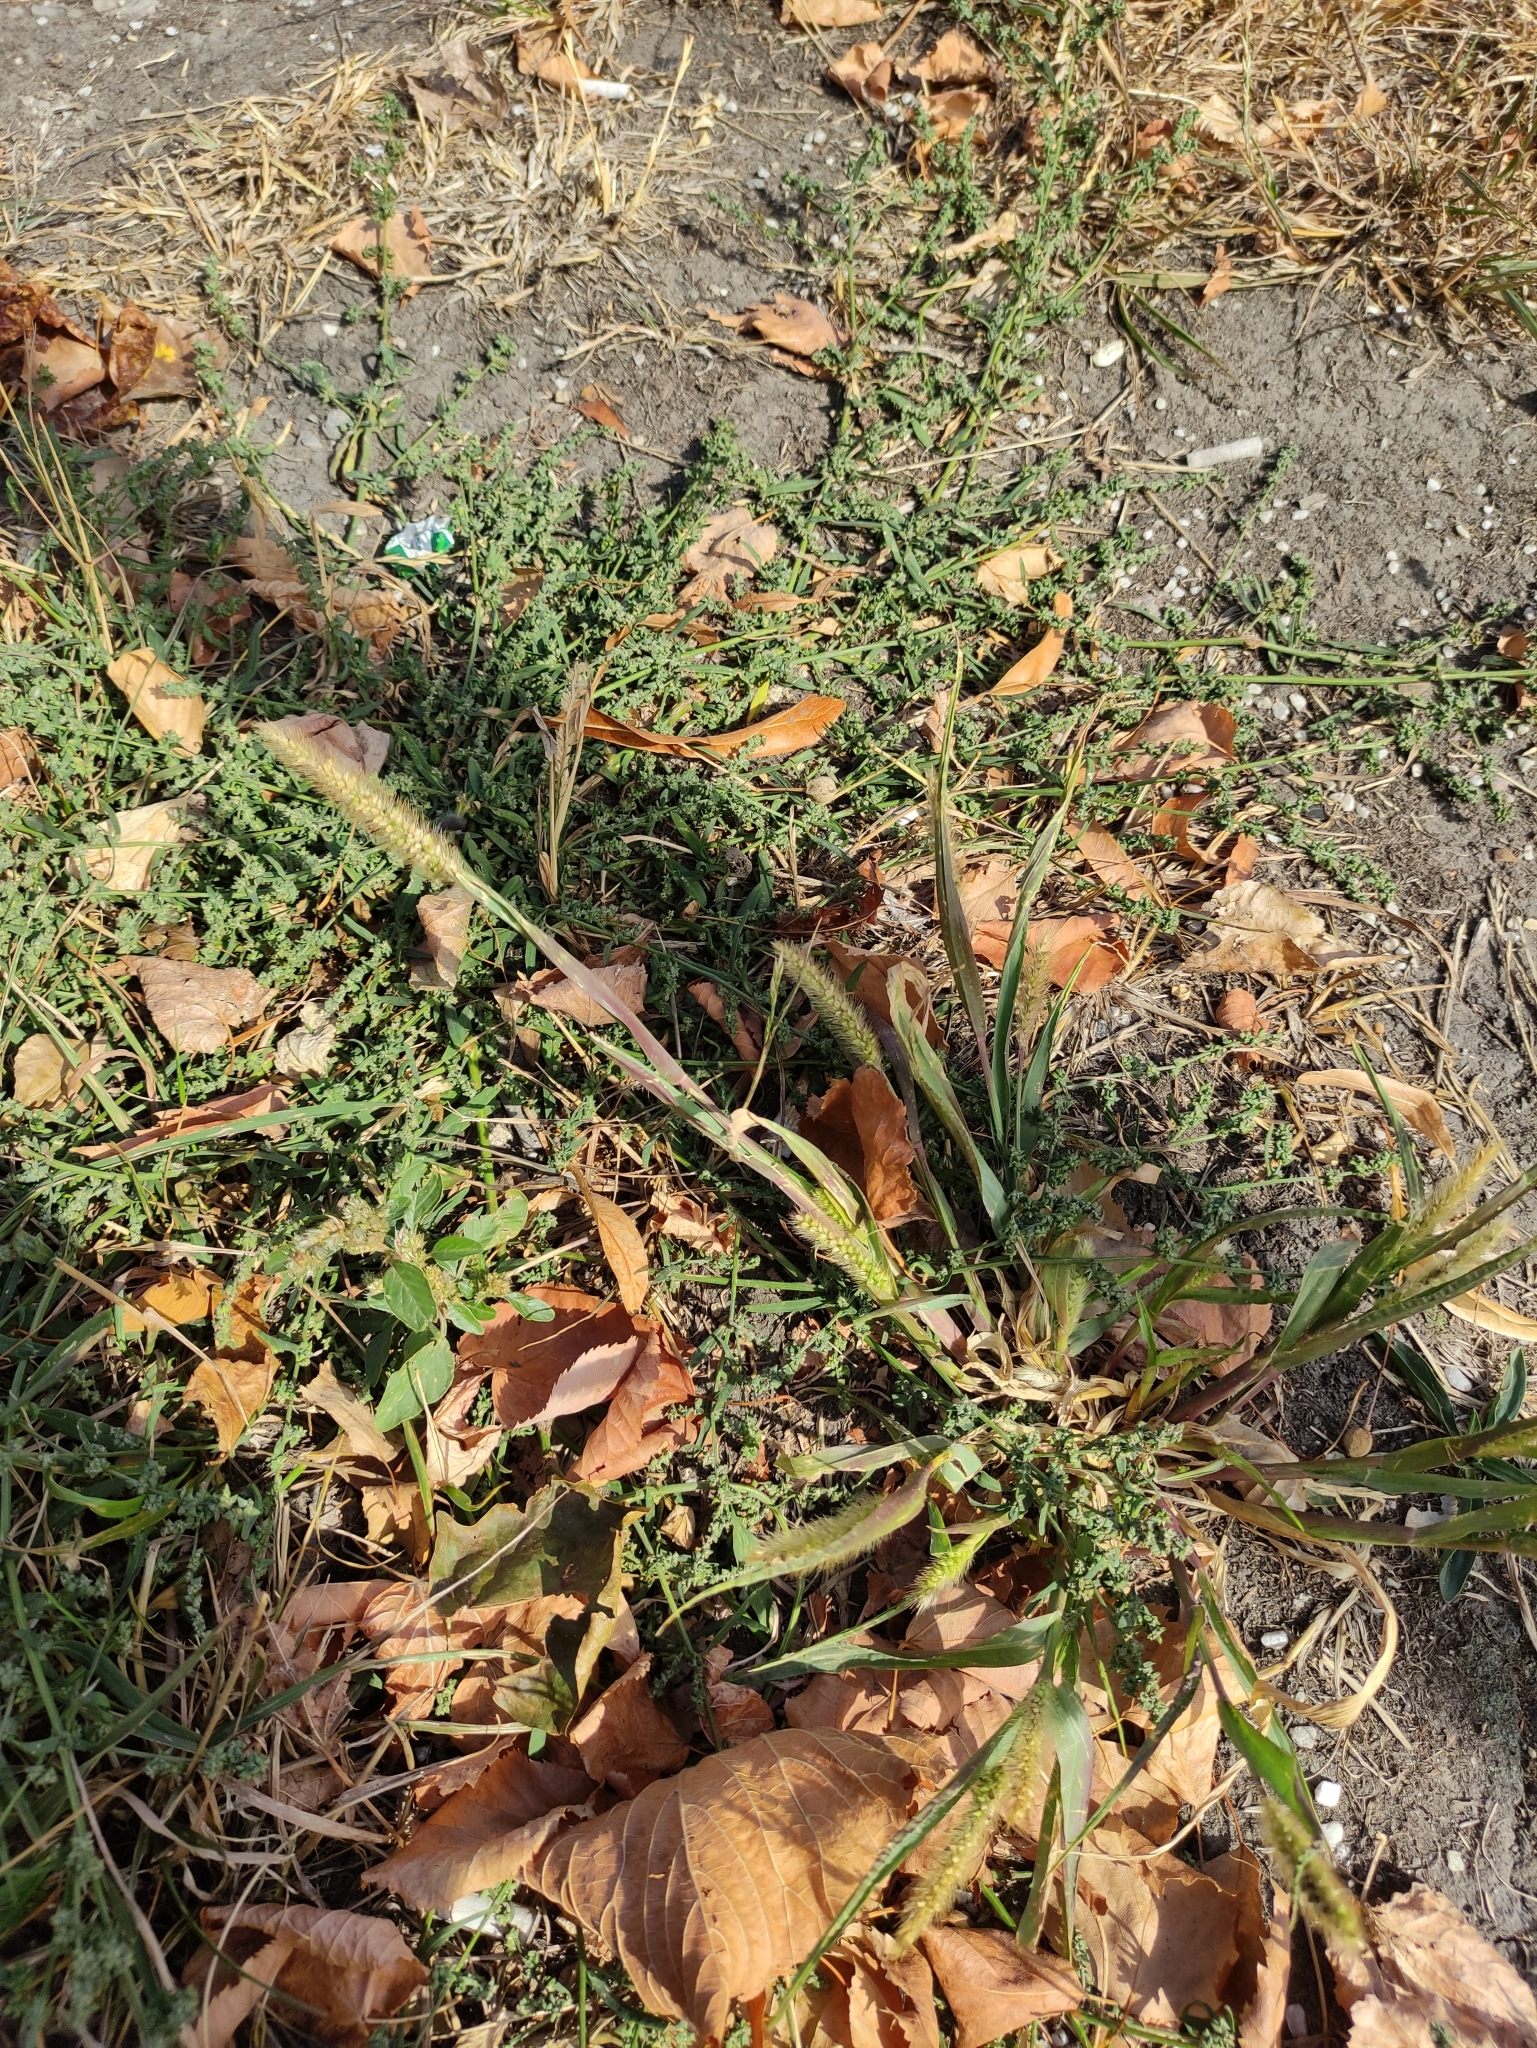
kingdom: Plantae
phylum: Tracheophyta
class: Liliopsida
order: Poales
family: Poaceae
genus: Setaria
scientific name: Setaria pumila
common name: Yellow bristle-grass
